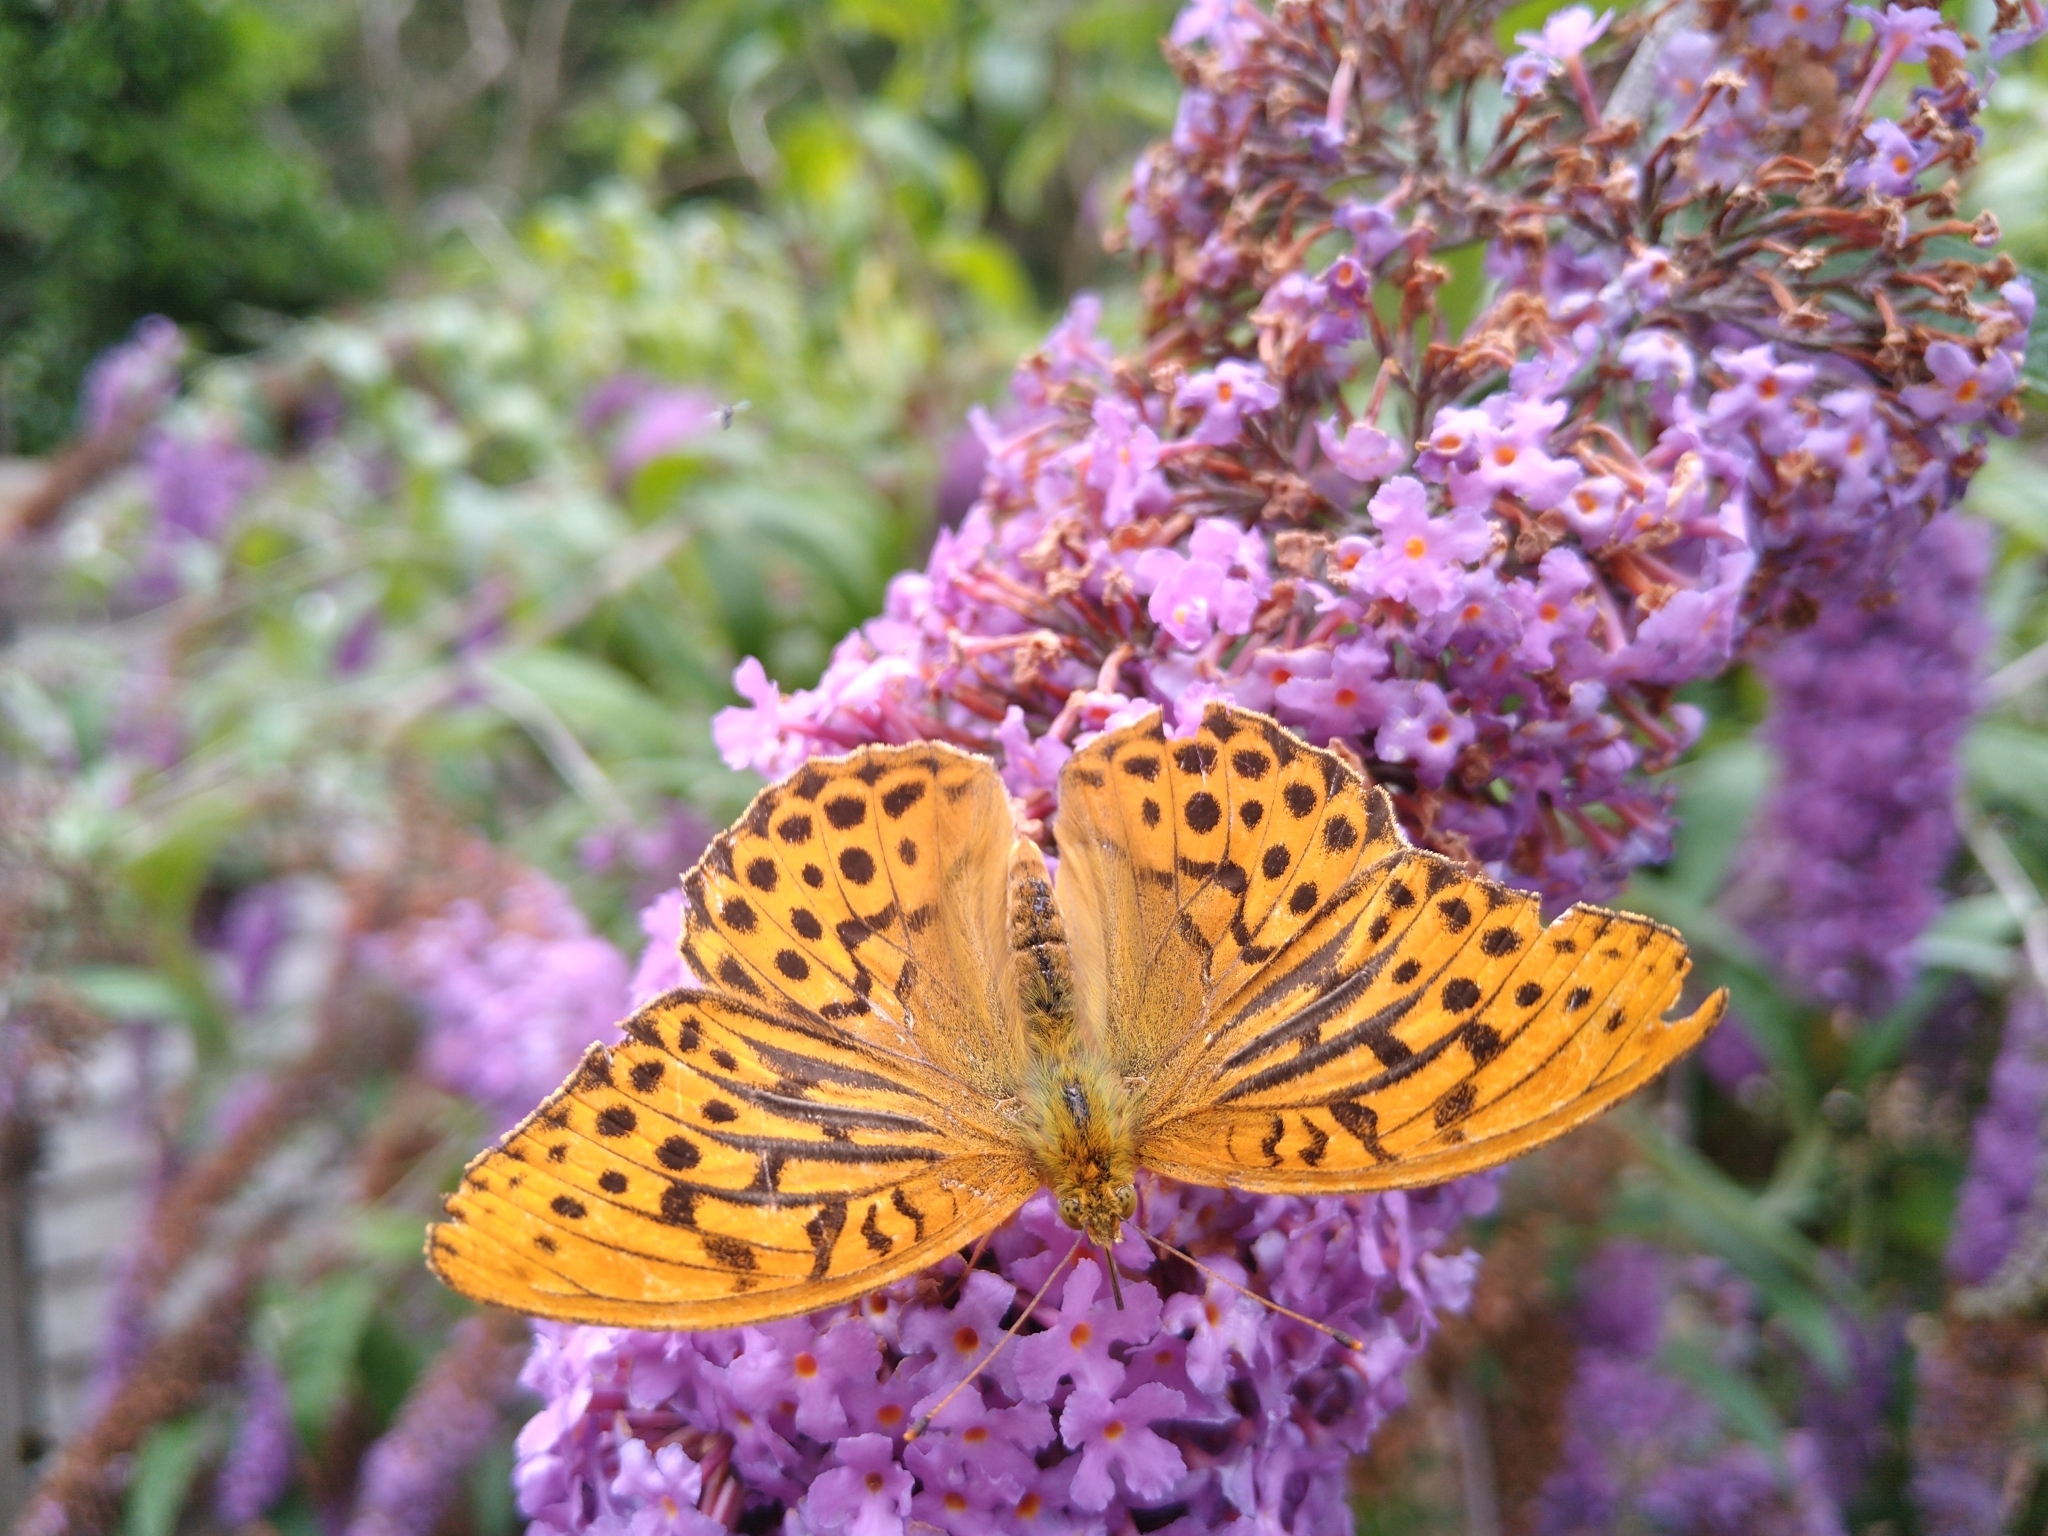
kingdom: Animalia
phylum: Arthropoda
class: Insecta
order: Lepidoptera
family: Nymphalidae
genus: Argynnis
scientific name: Argynnis paphia
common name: Silver-washed fritillary
